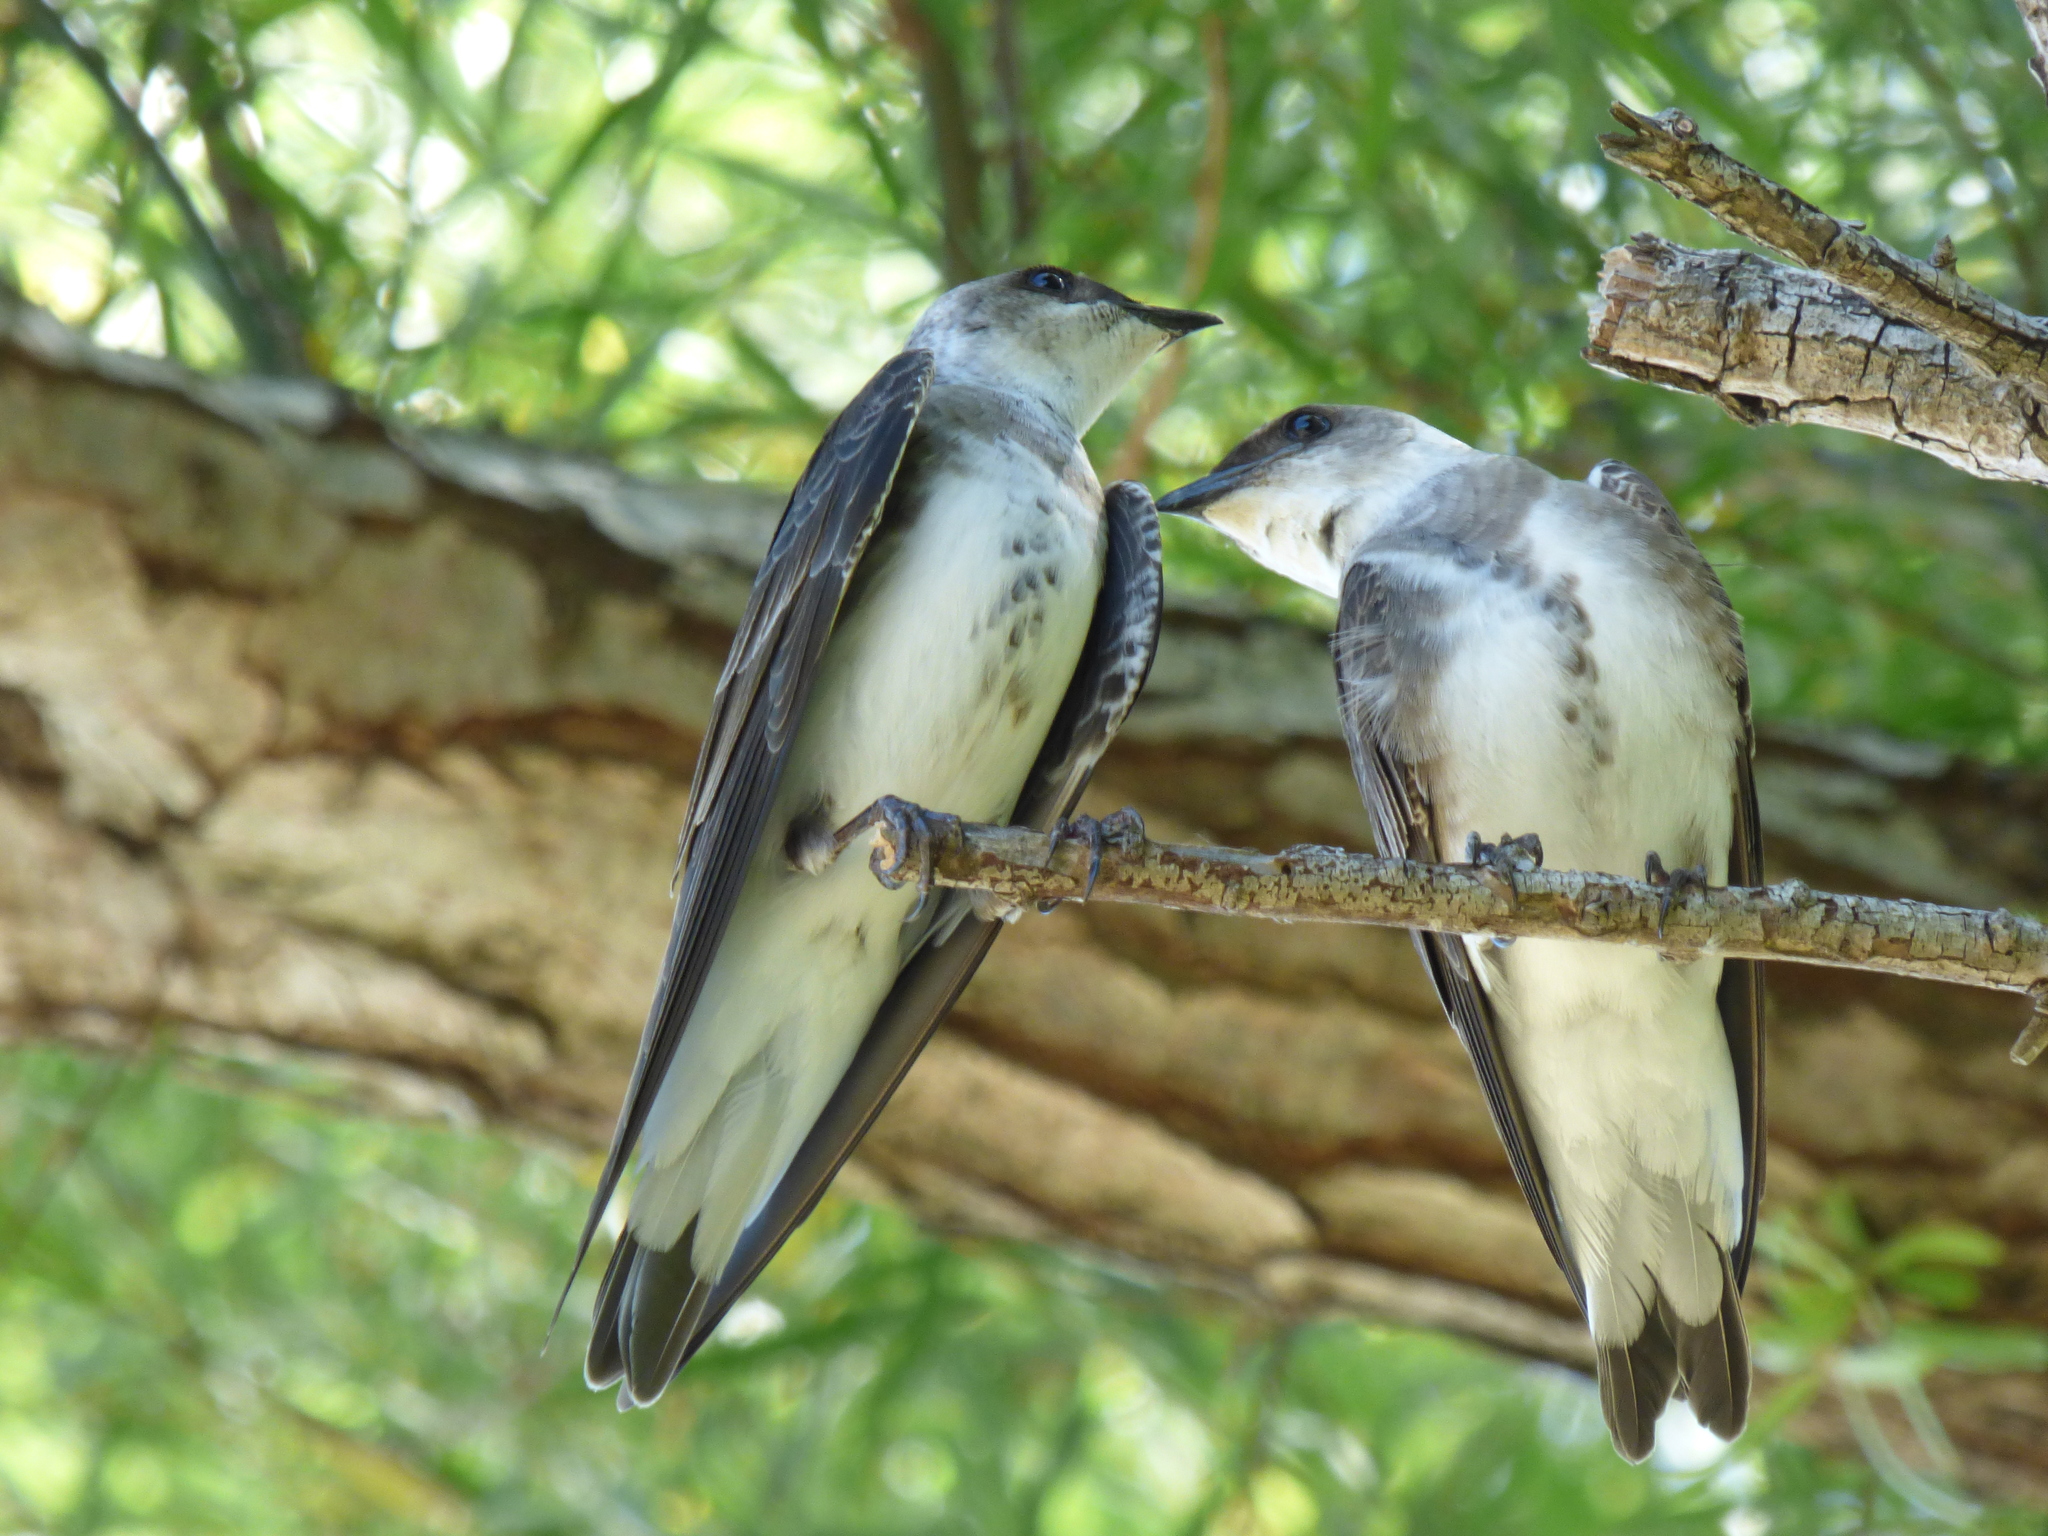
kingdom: Animalia
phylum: Chordata
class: Aves
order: Passeriformes
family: Hirundinidae
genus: Progne
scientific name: Progne tapera
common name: Brown-chested martin
